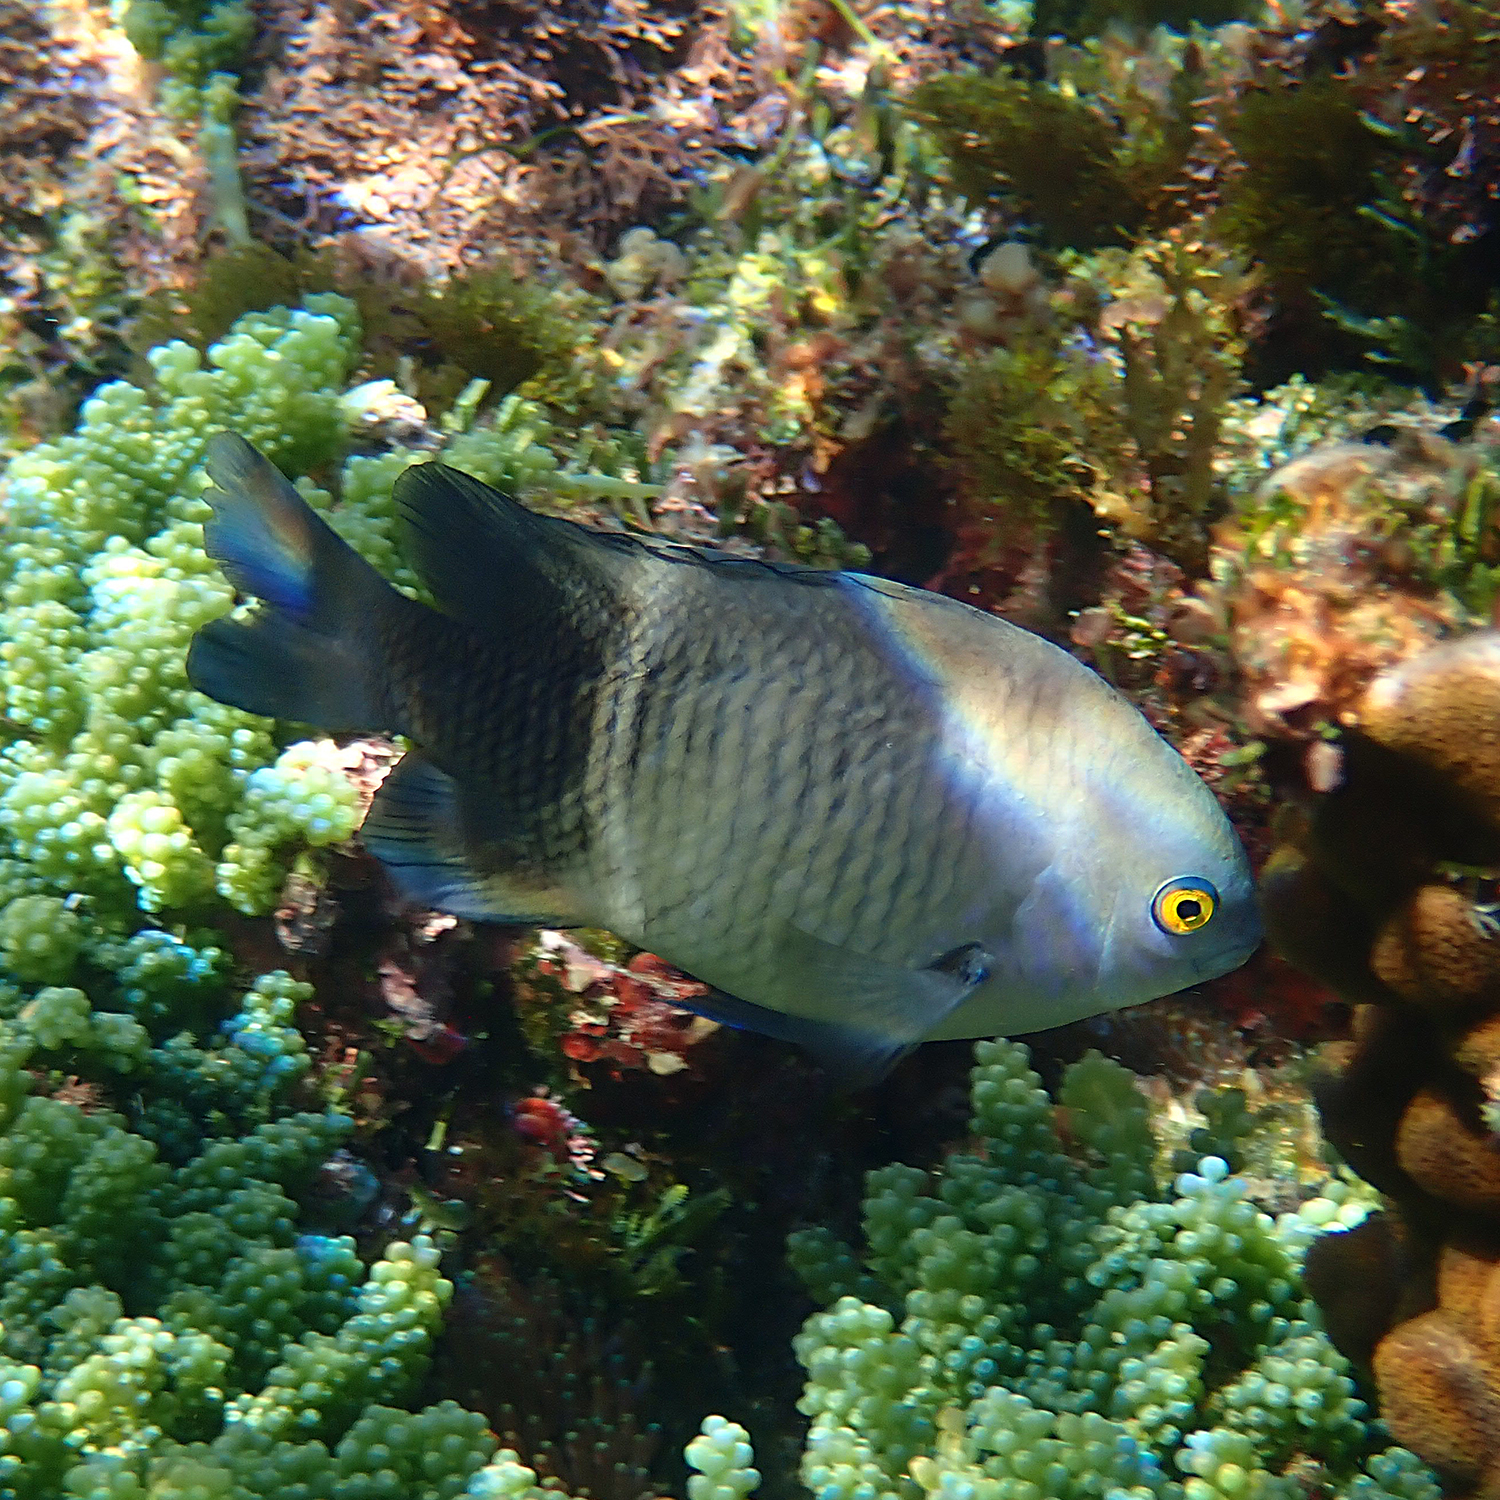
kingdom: Animalia
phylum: Chordata
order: Perciformes
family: Pomacentridae
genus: Stegastes
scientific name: Stegastes fasciolatus
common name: Pacific gregory
